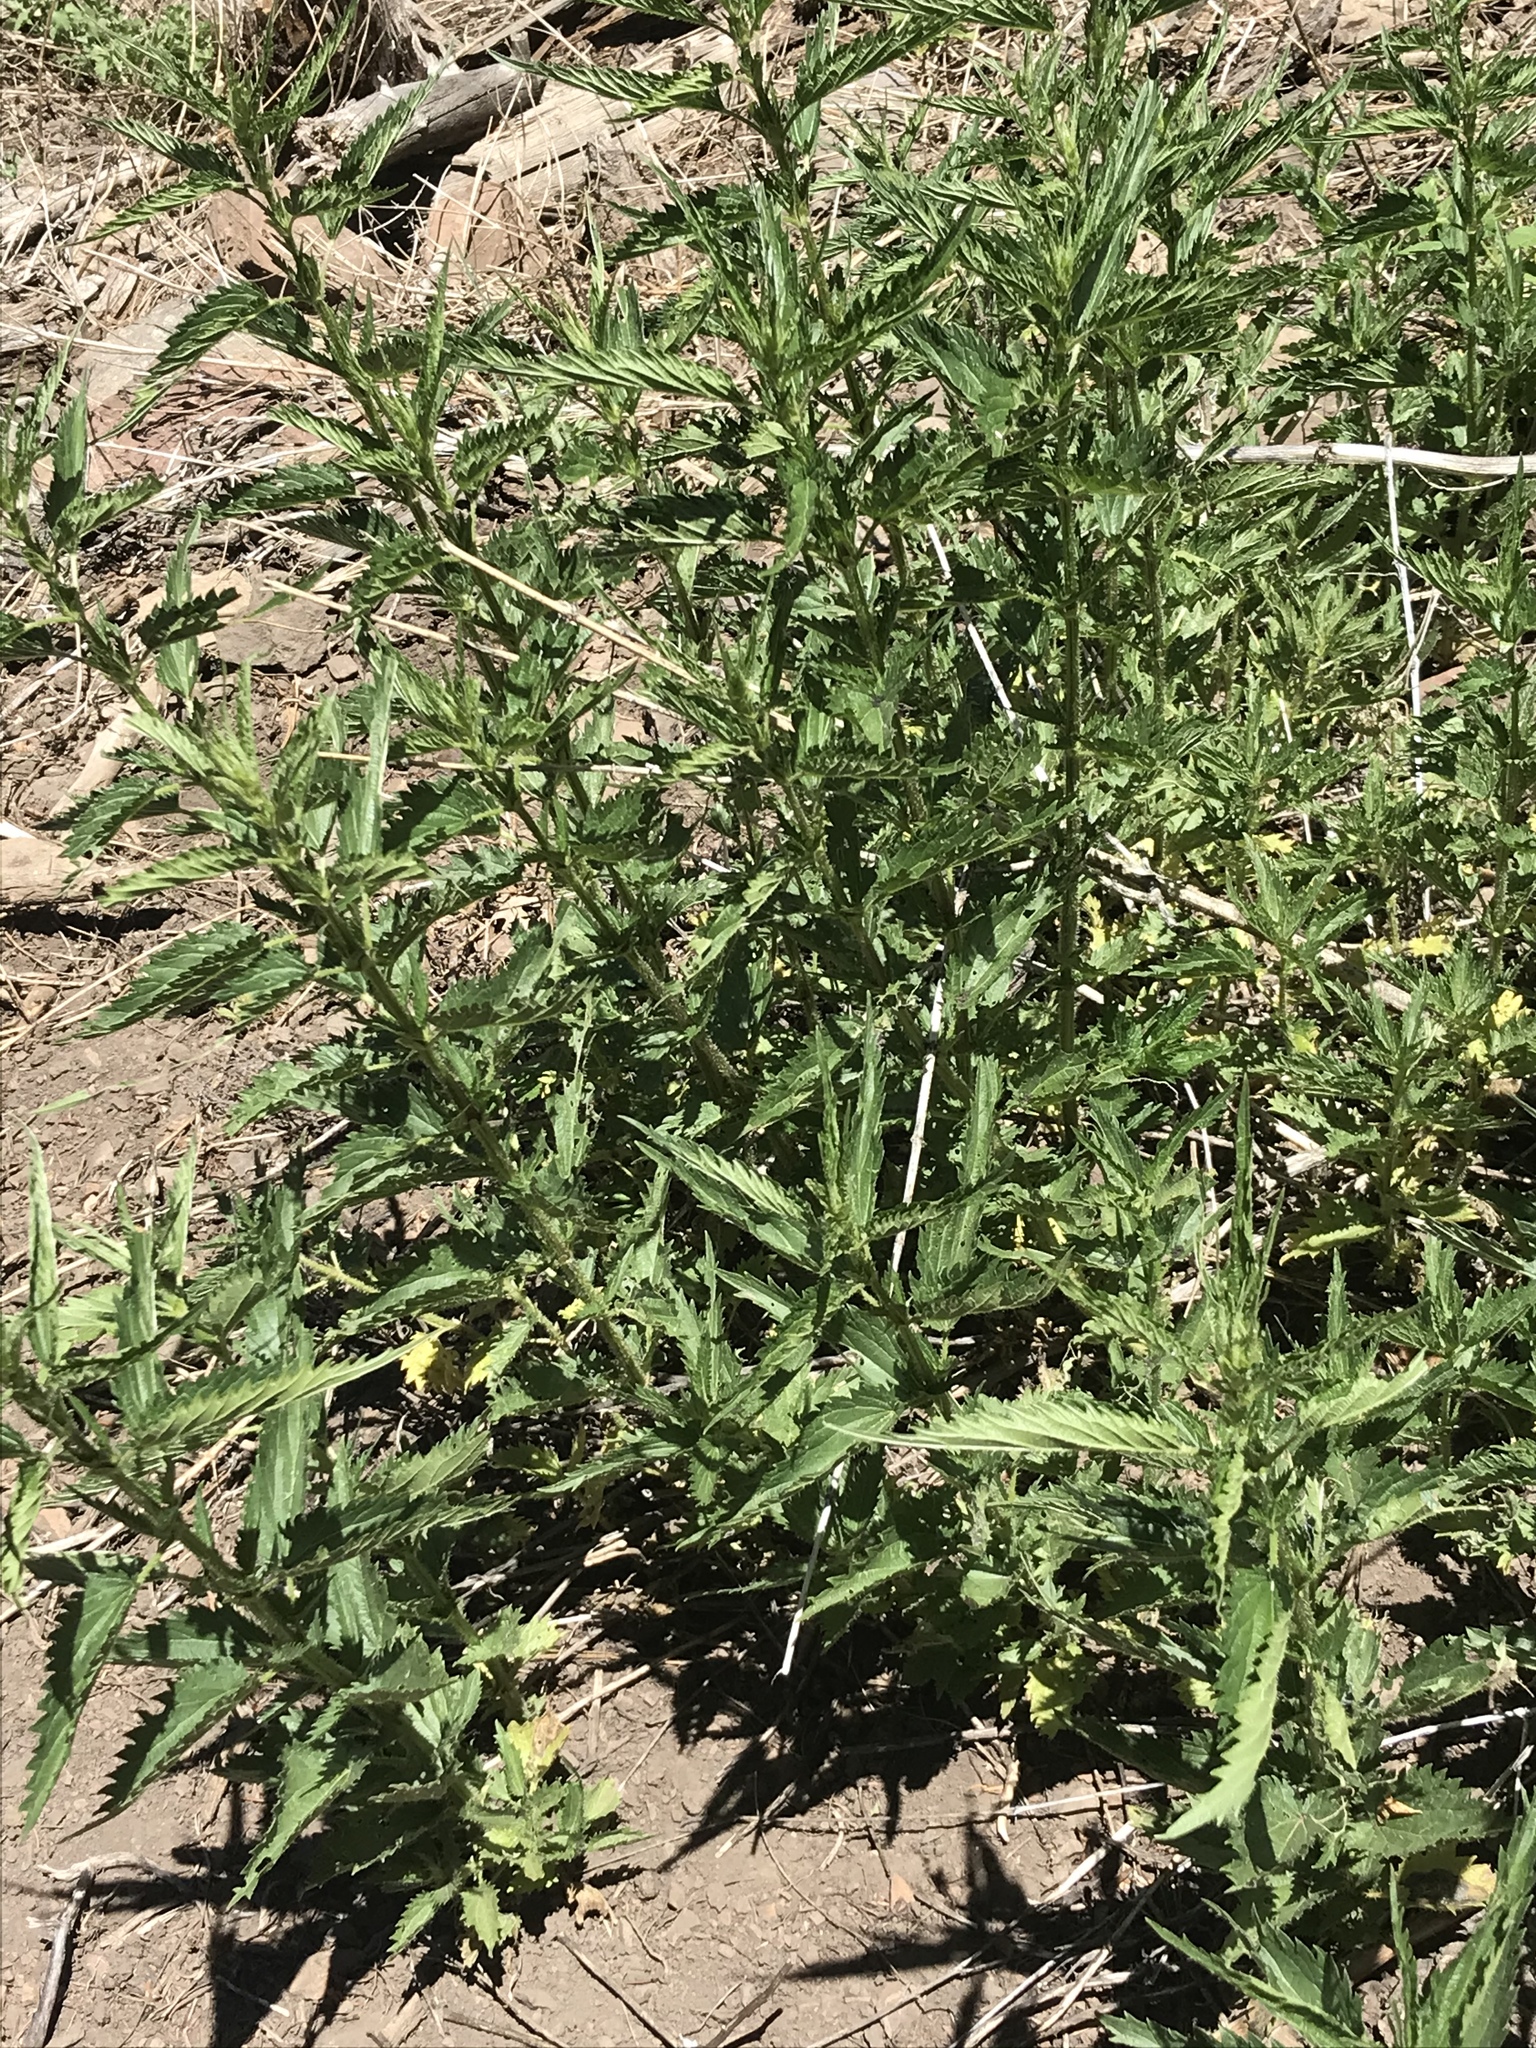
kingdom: Plantae
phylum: Tracheophyta
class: Magnoliopsida
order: Rosales
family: Urticaceae
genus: Urtica
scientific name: Urtica gracilis
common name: Slender stinging nettle
